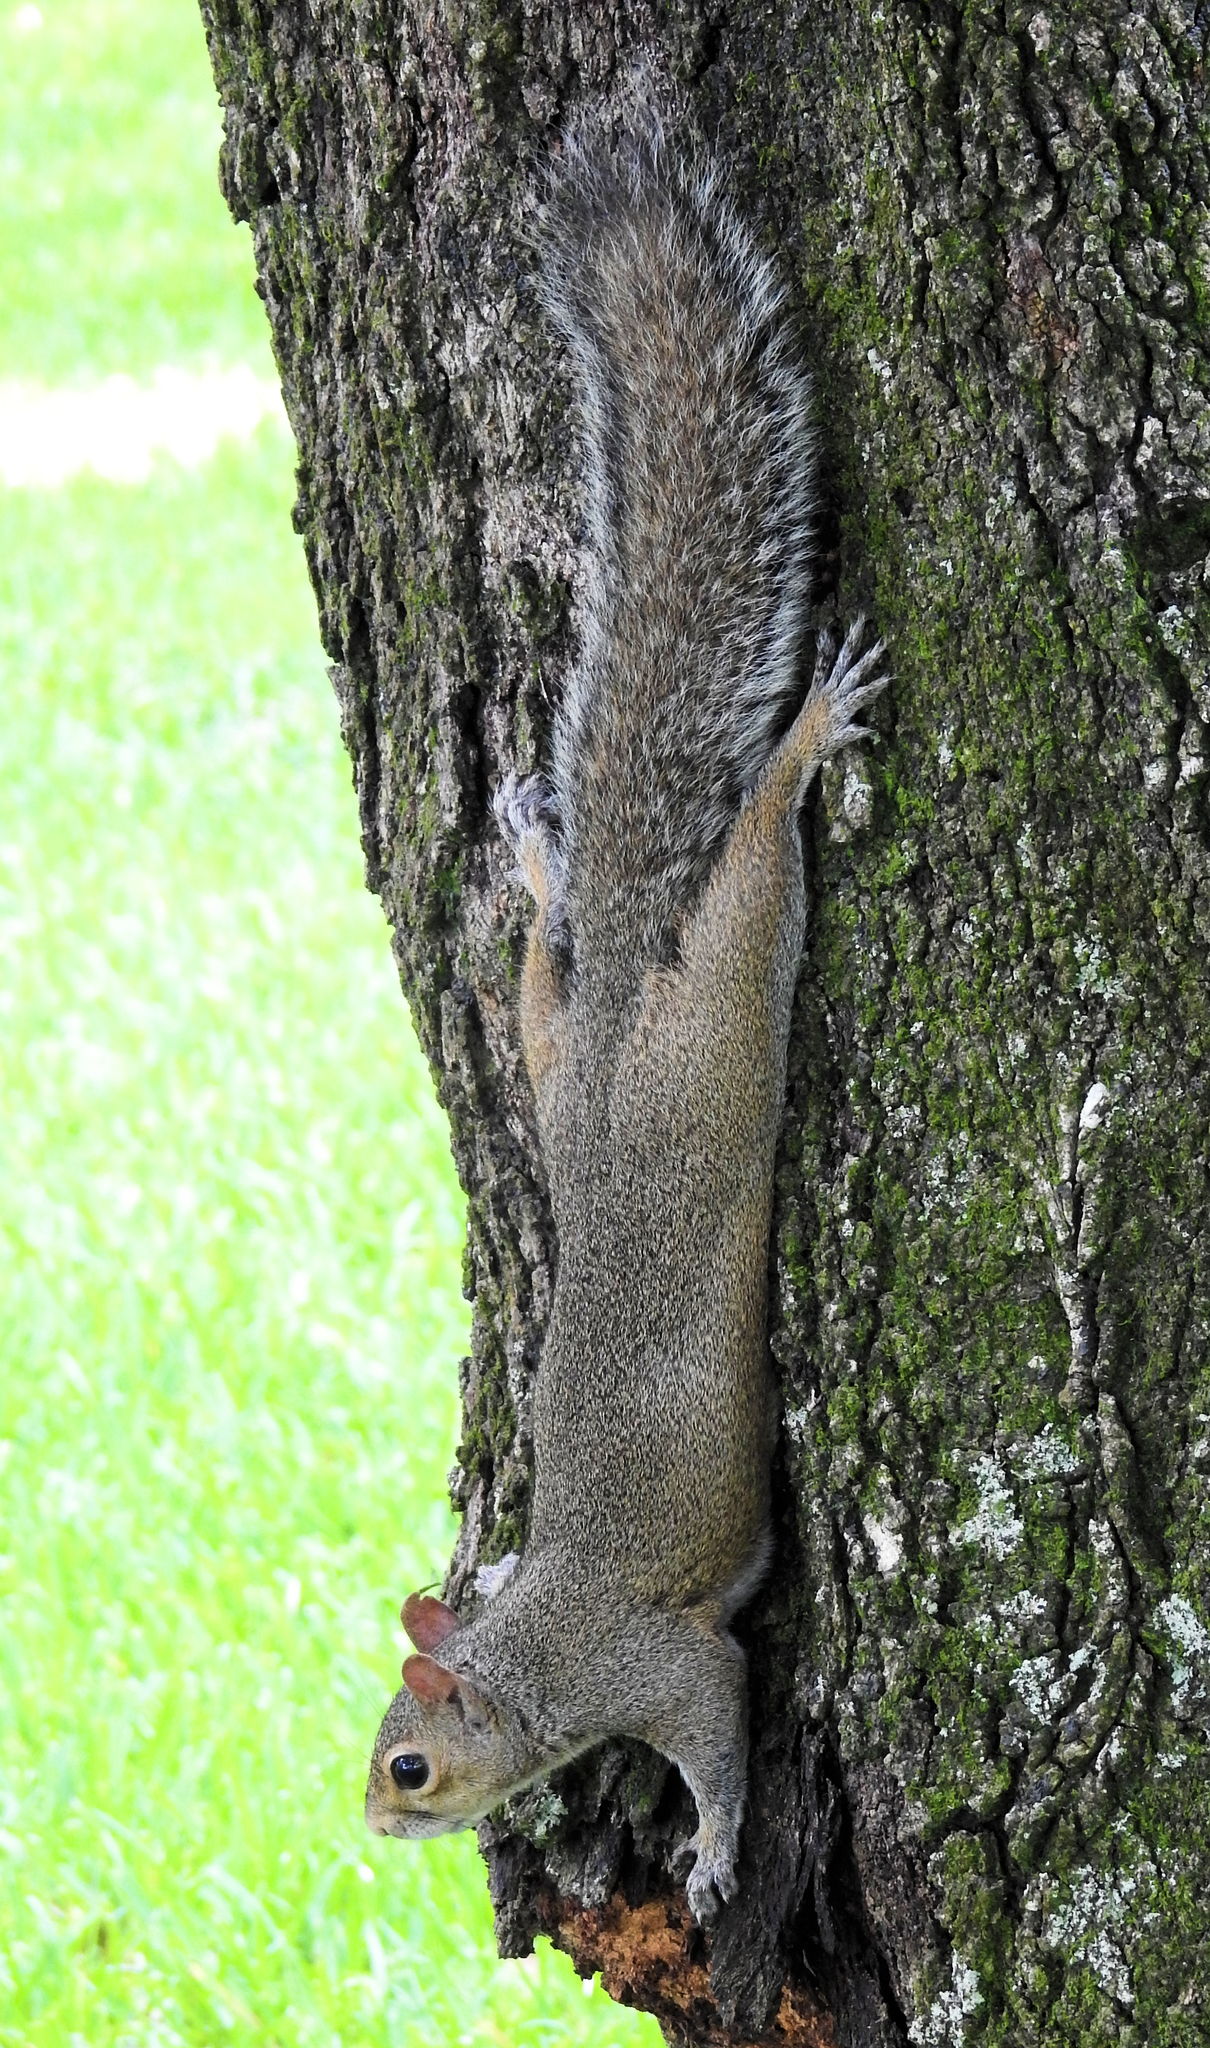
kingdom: Animalia
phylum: Chordata
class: Mammalia
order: Rodentia
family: Sciuridae
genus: Sciurus
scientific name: Sciurus carolinensis
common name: Eastern gray squirrel
